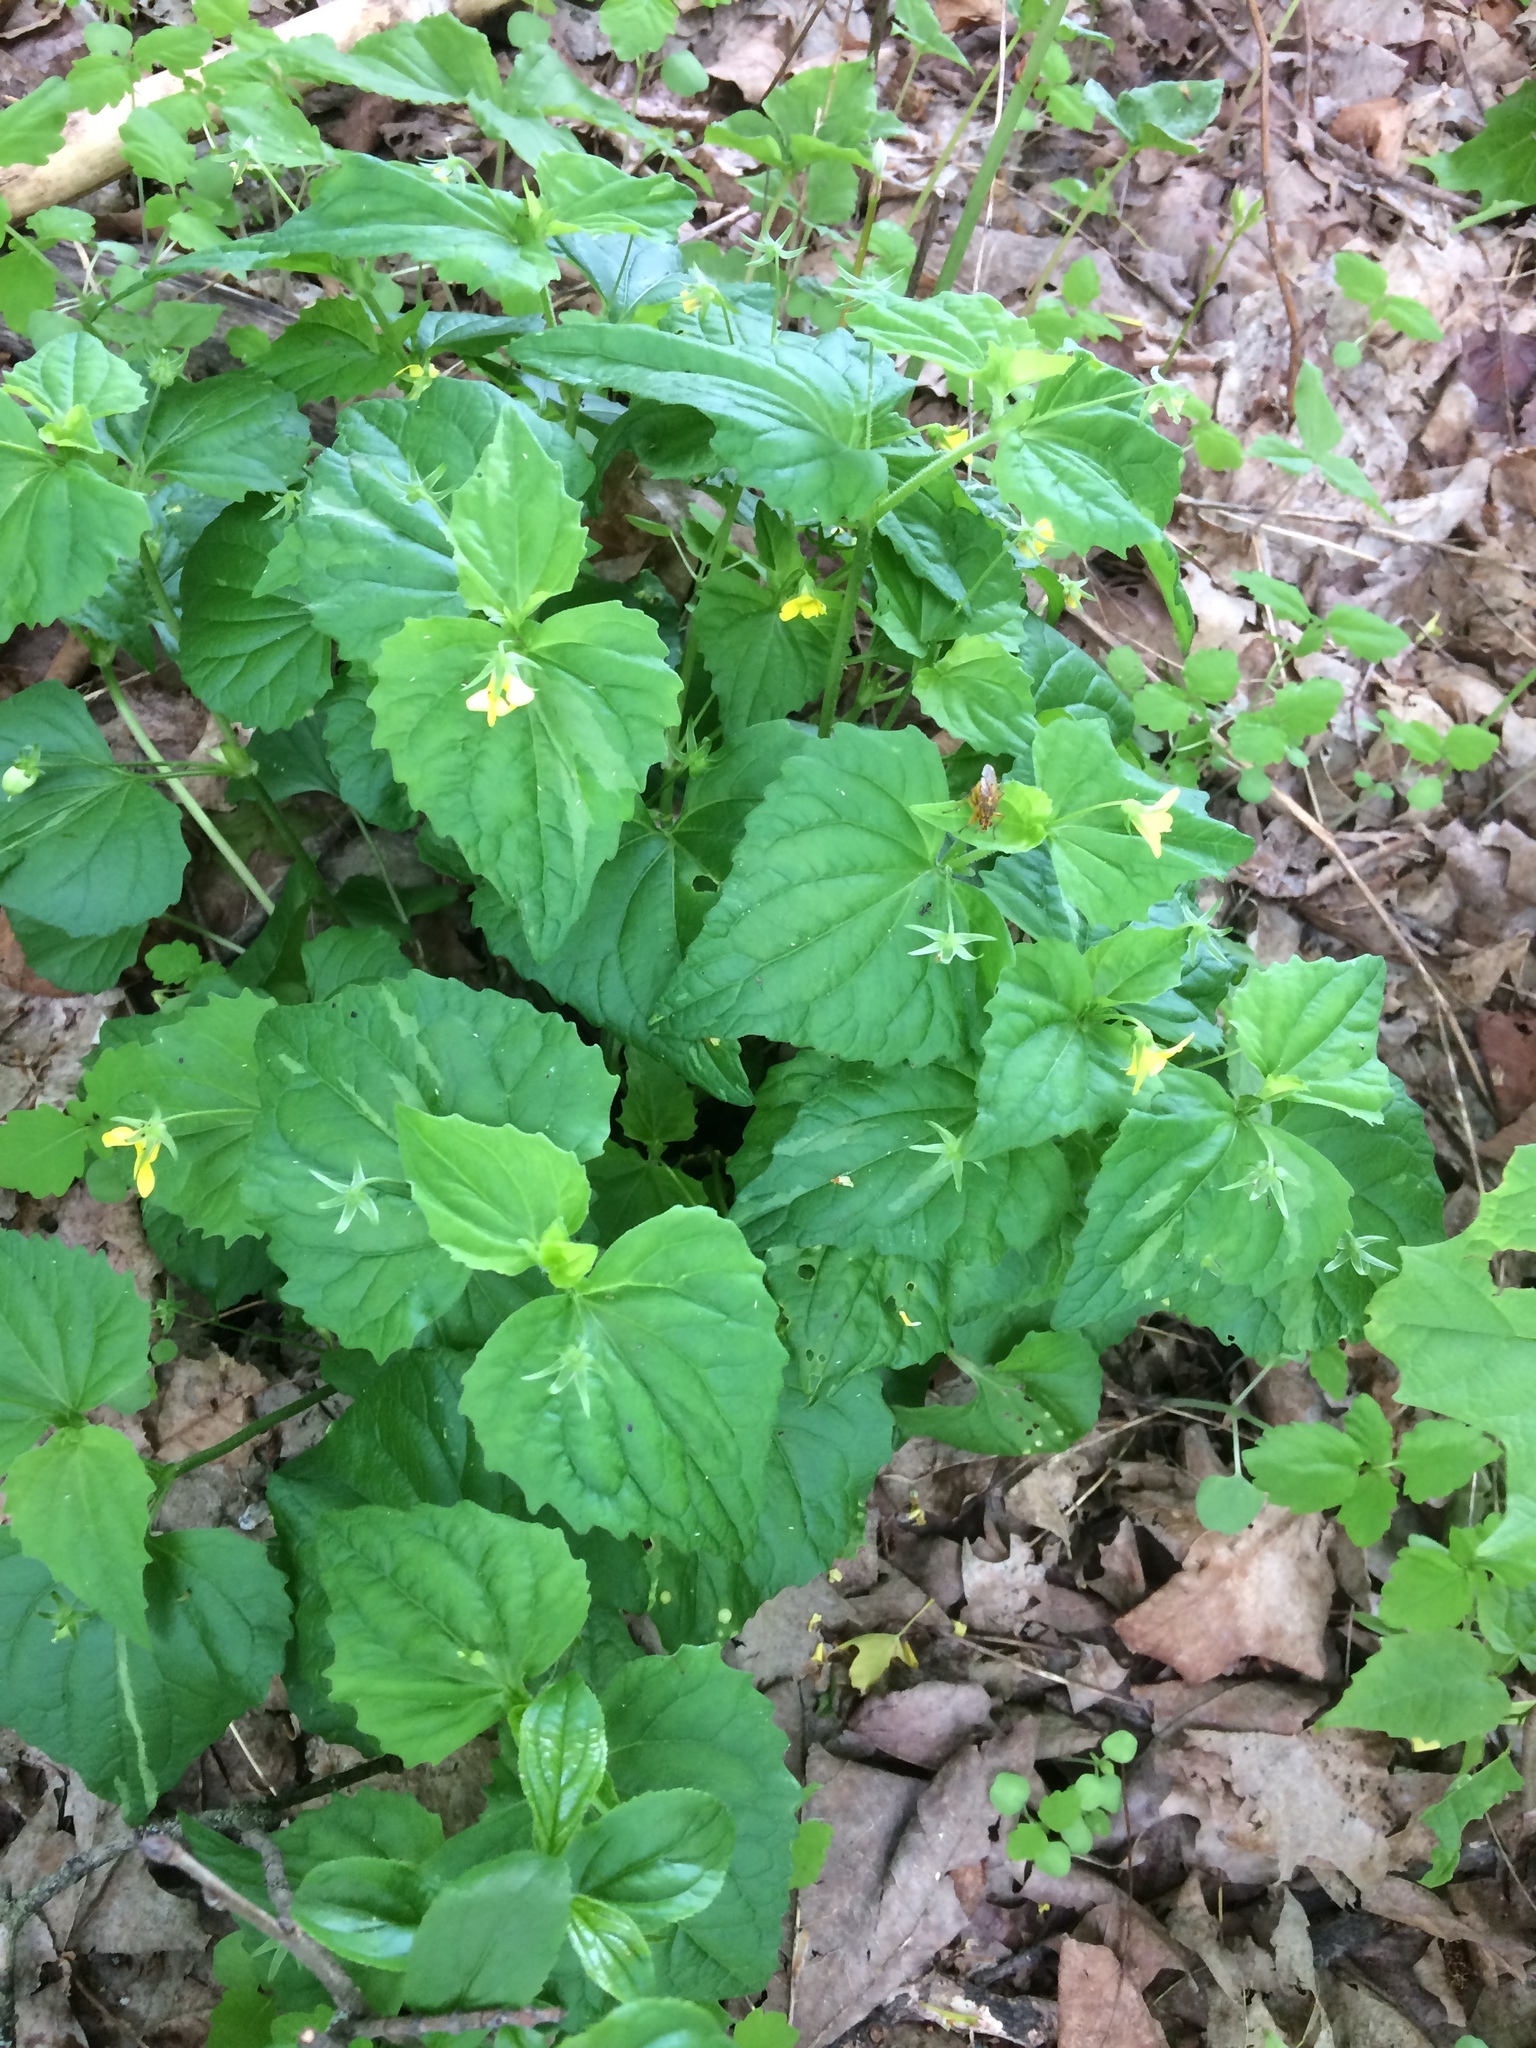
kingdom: Plantae
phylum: Tracheophyta
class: Magnoliopsida
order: Malpighiales
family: Violaceae
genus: Viola
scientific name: Viola eriocarpa
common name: Smooth yellow violet
